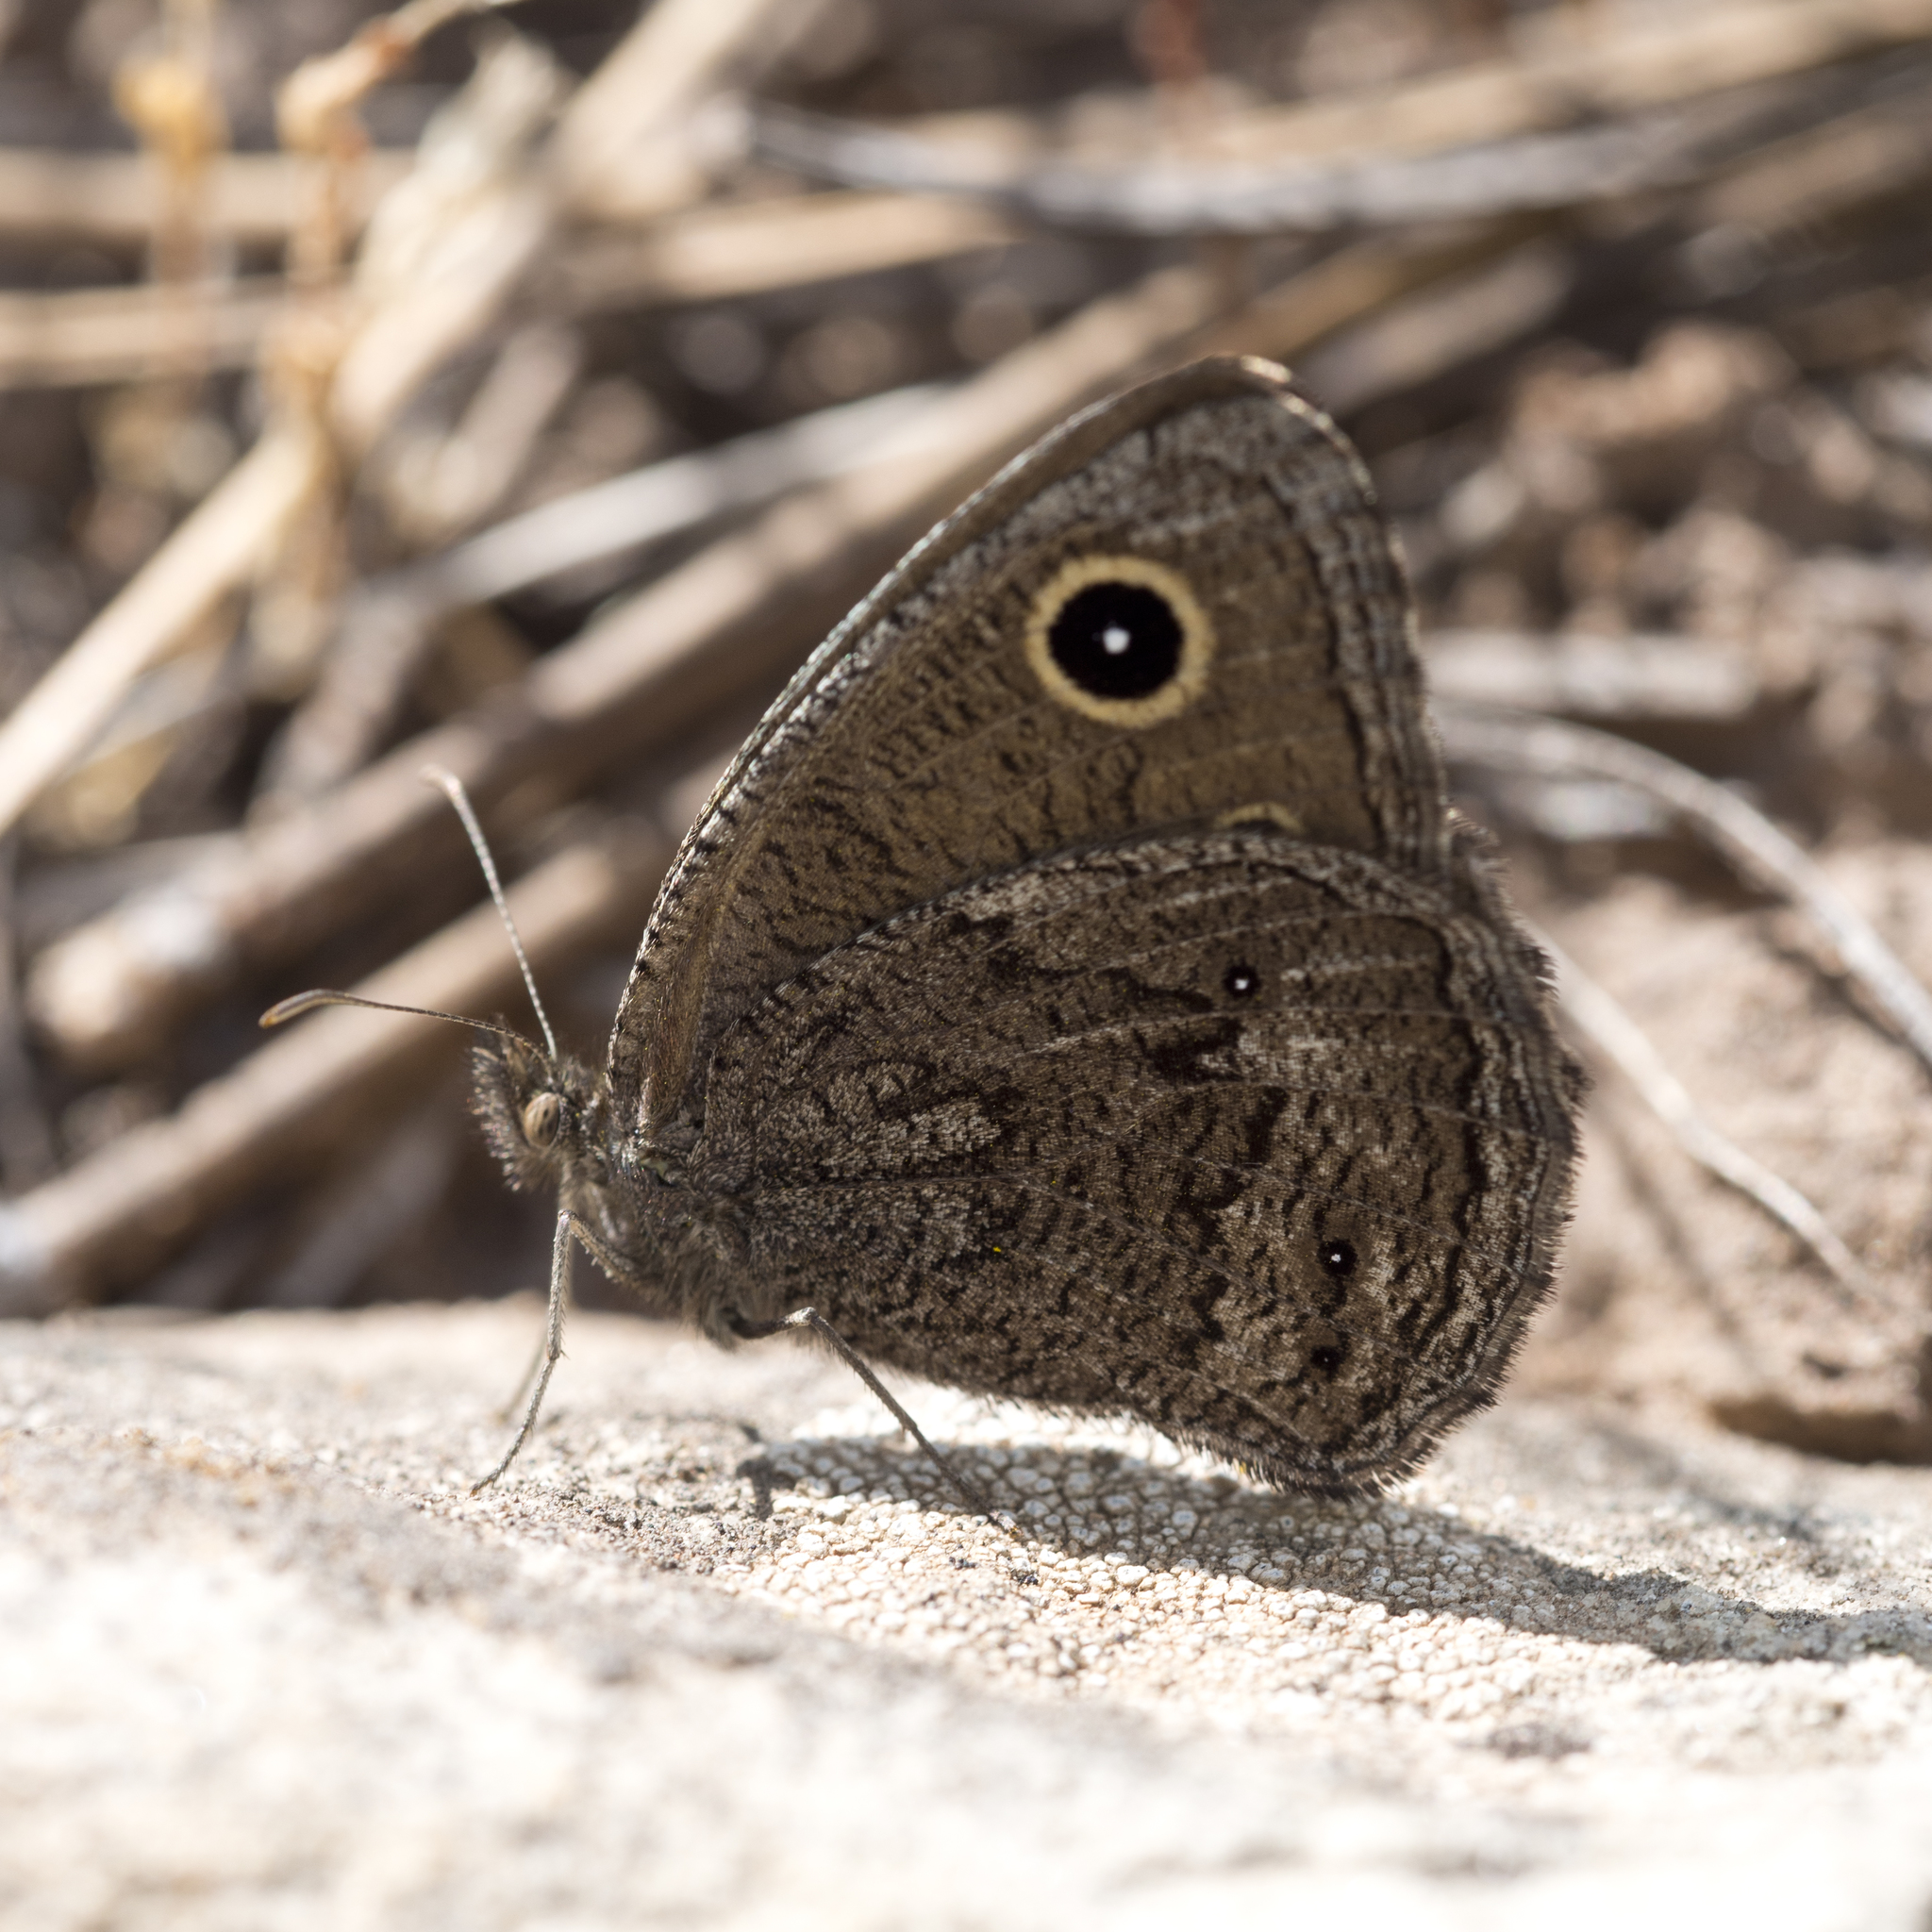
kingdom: Animalia
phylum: Arthropoda
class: Insecta
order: Lepidoptera
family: Nymphalidae
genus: Cercyonis
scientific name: Cercyonis oetus
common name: Small wood-nymph
